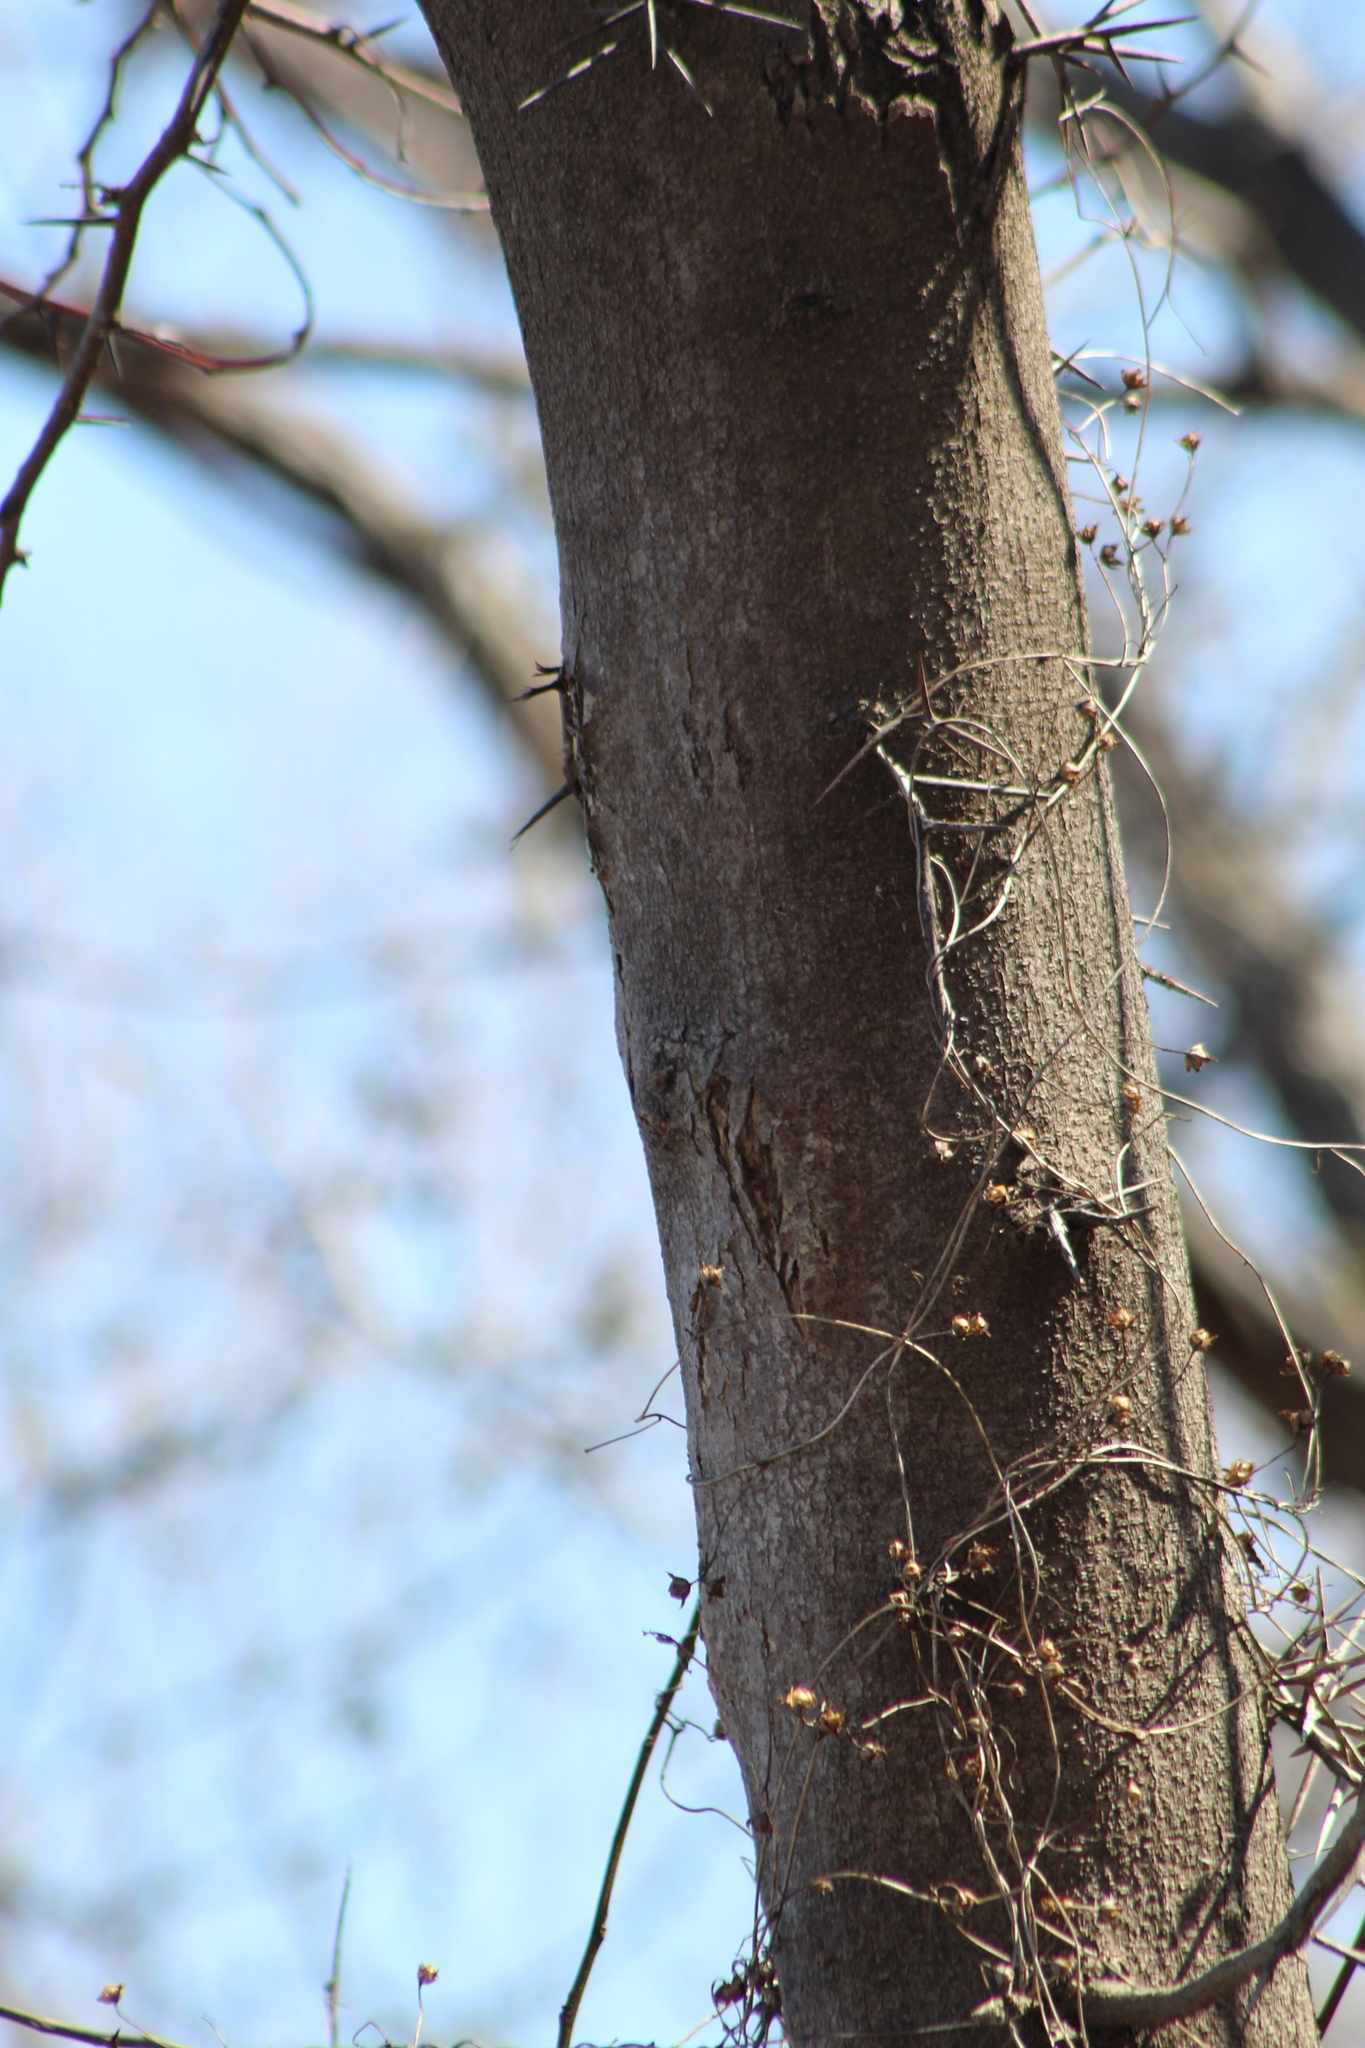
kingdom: Plantae
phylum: Tracheophyta
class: Magnoliopsida
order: Fabales
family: Fabaceae
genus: Gleditsia
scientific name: Gleditsia triacanthos
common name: Common honeylocust
